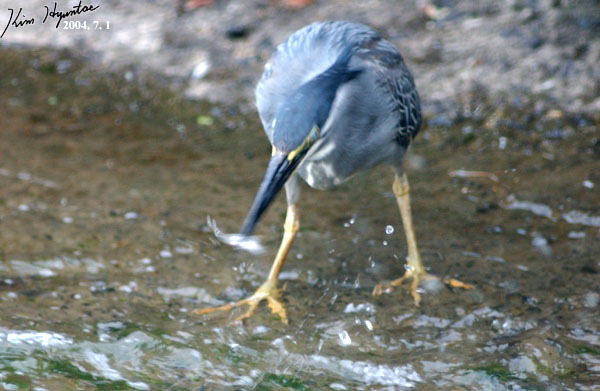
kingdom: Animalia
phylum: Chordata
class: Aves
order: Pelecaniformes
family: Ardeidae
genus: Butorides
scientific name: Butorides striata
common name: Striated heron
